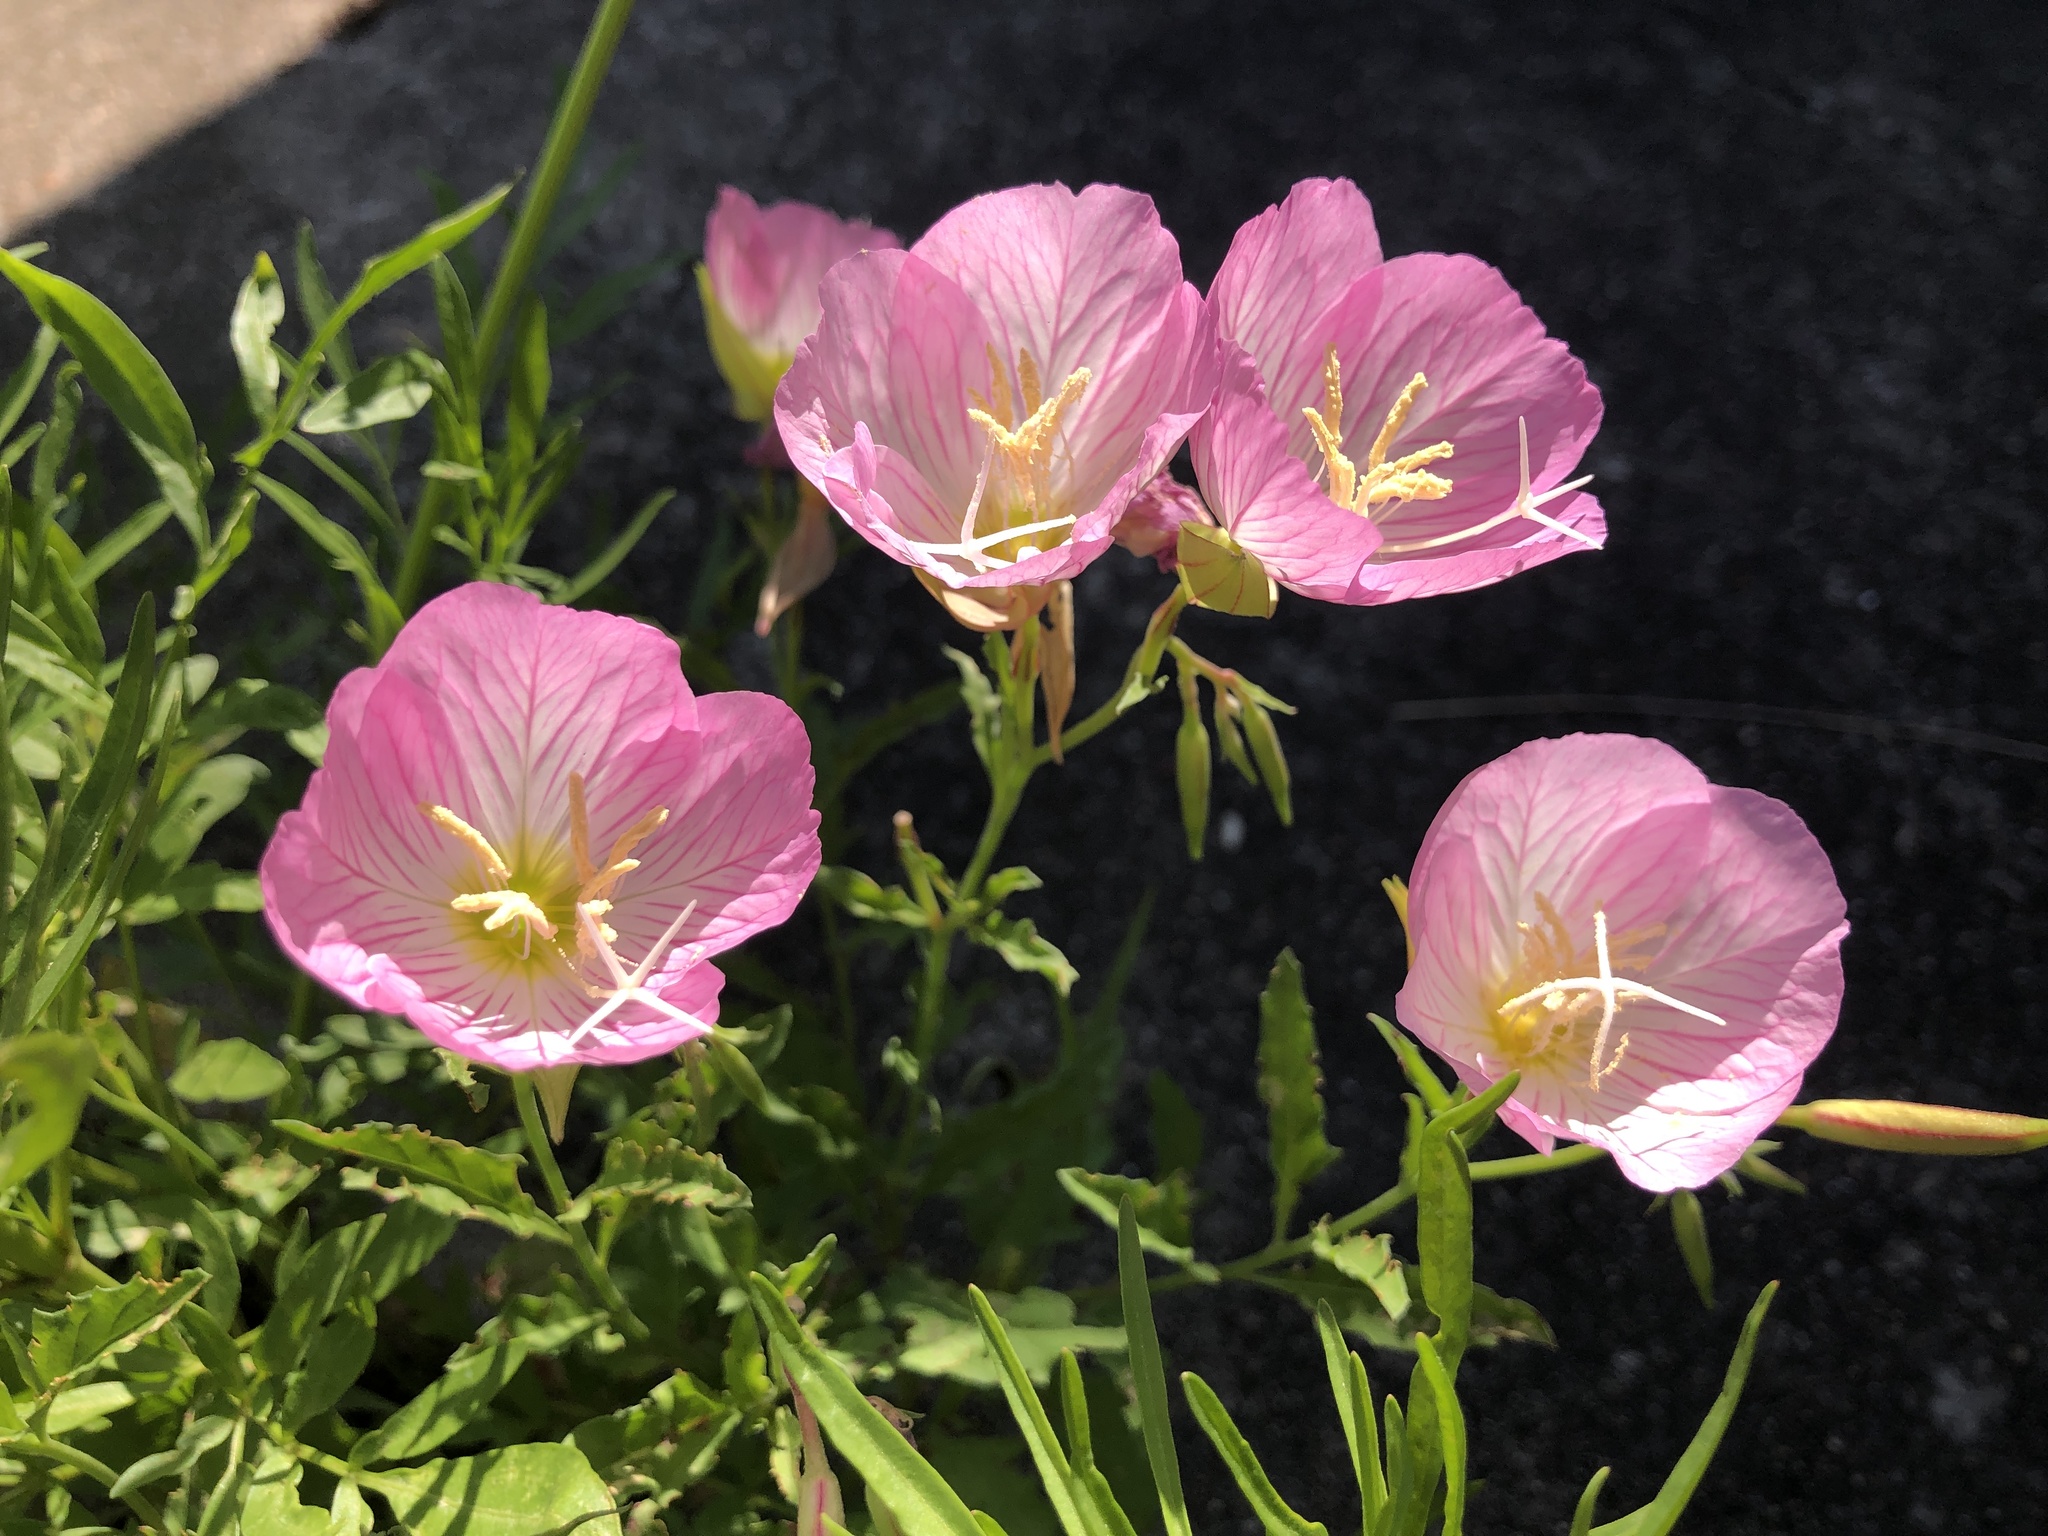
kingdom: Plantae
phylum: Tracheophyta
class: Magnoliopsida
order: Myrtales
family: Onagraceae
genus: Oenothera
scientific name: Oenothera speciosa
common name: White evening-primrose
